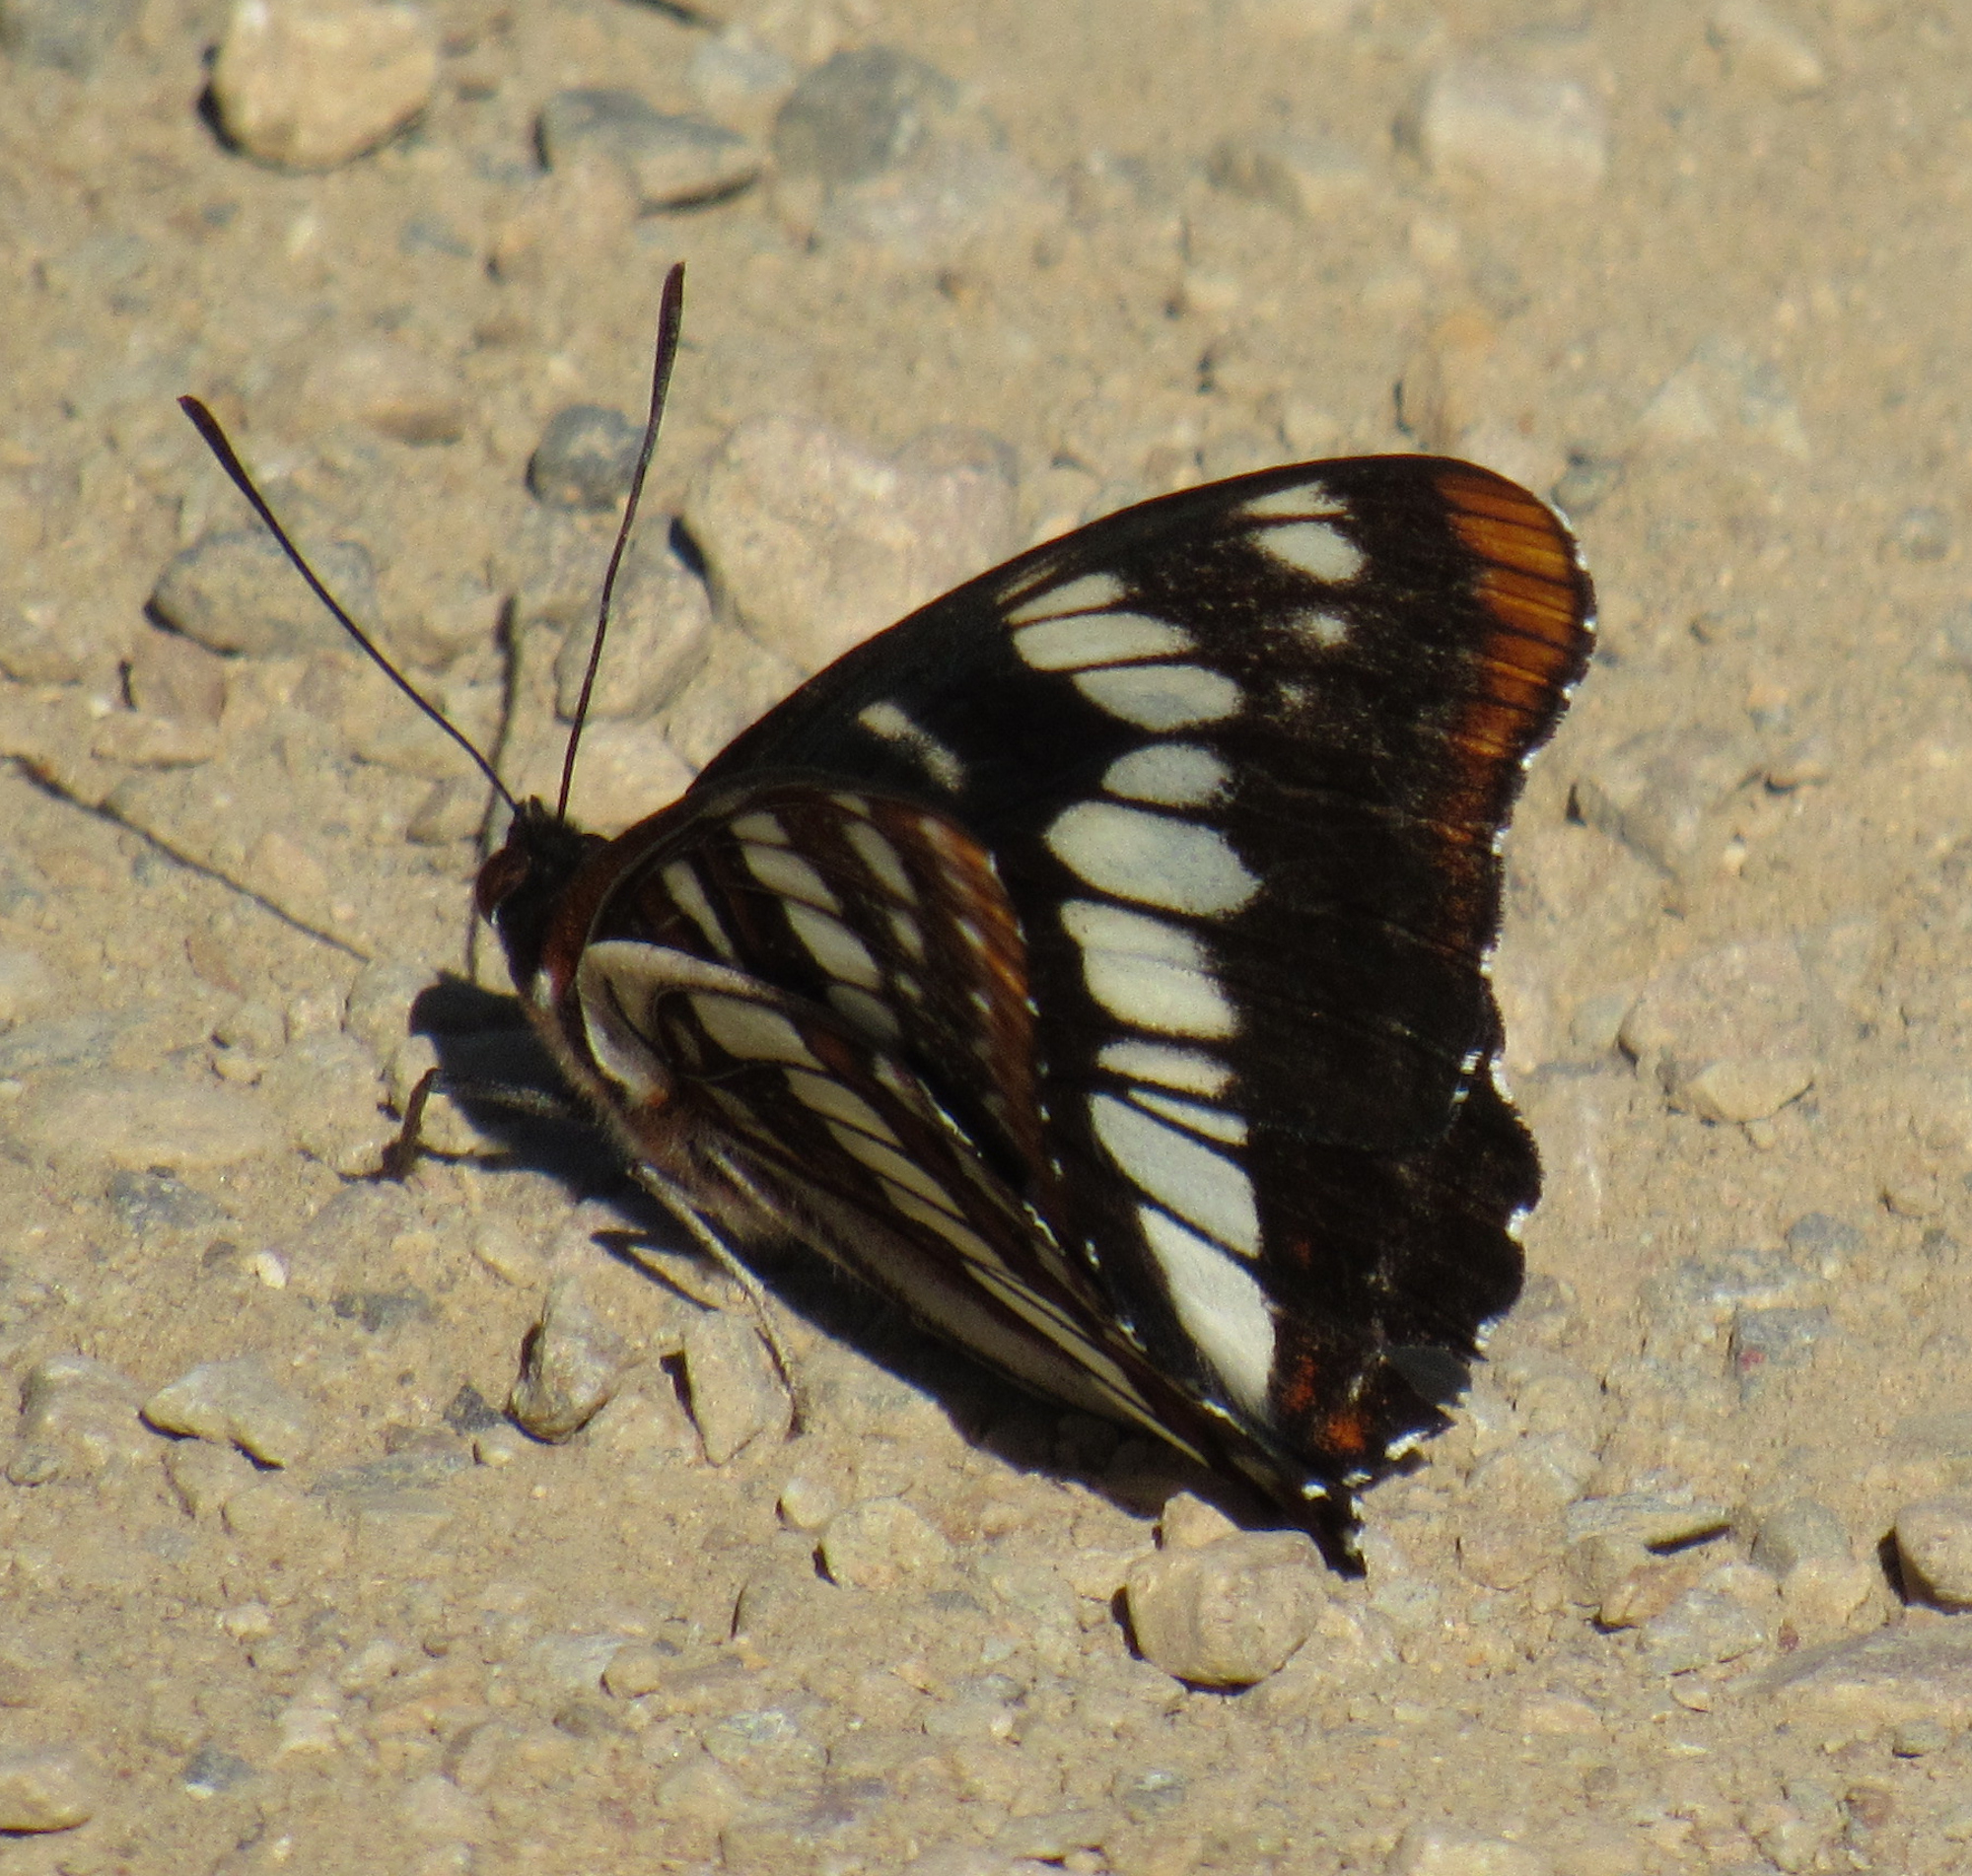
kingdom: Animalia
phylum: Arthropoda
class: Insecta
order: Lepidoptera
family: Nymphalidae
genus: Limenitis
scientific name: Limenitis lorquini
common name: Lorquin's admiral
